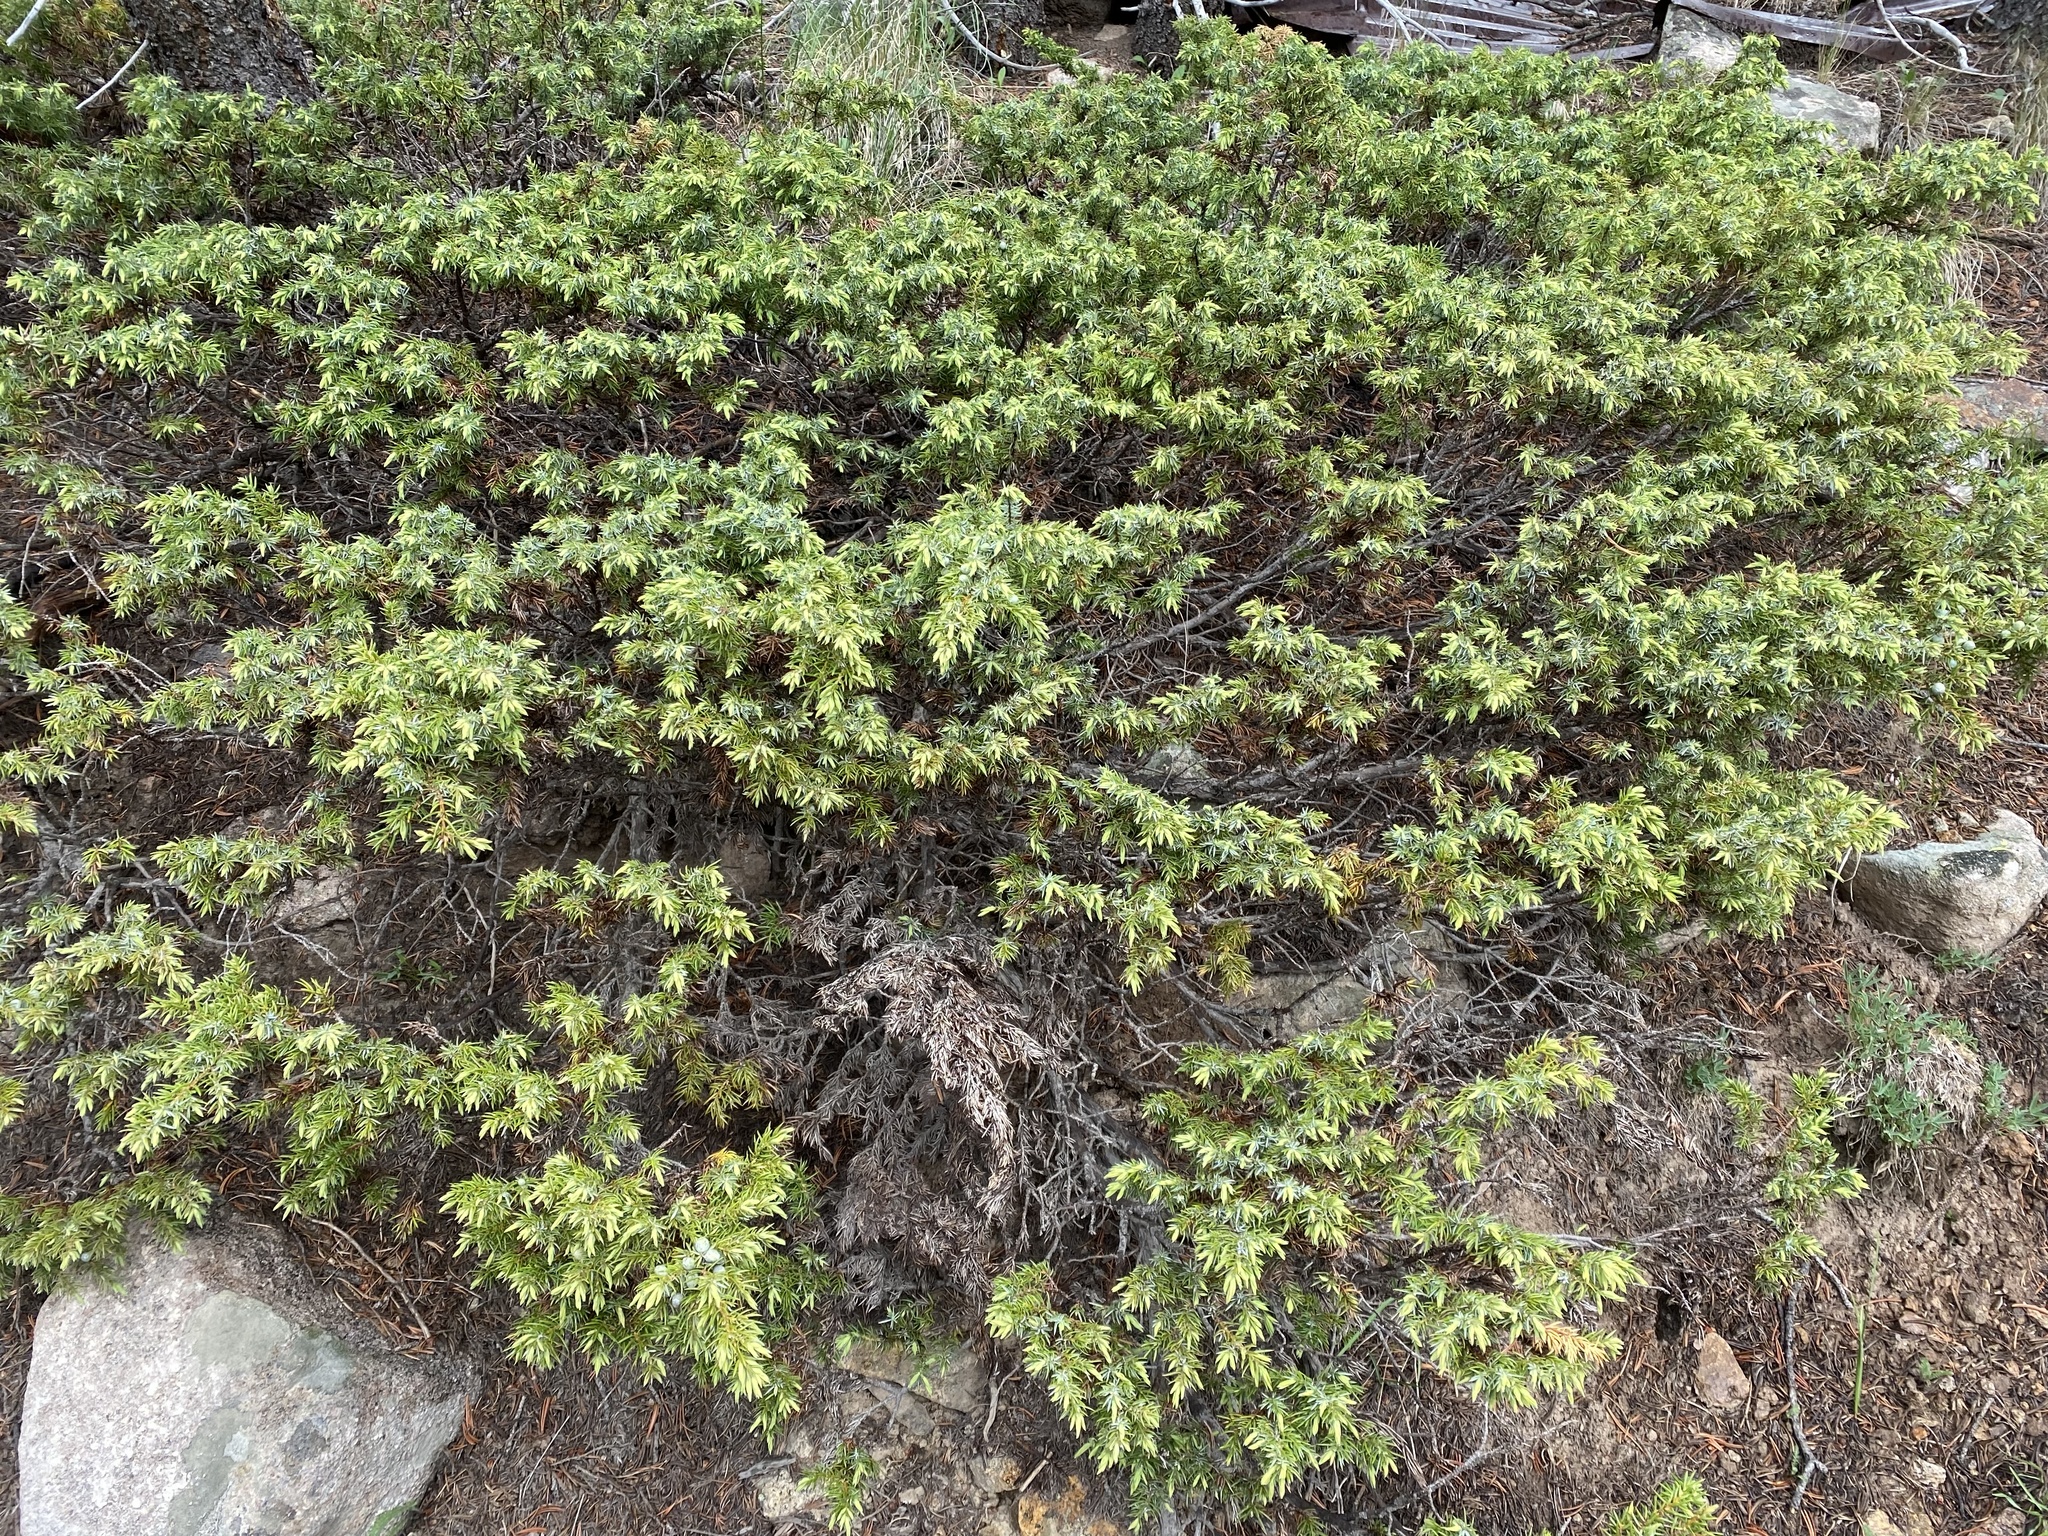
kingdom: Plantae
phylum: Tracheophyta
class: Pinopsida
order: Pinales
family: Cupressaceae
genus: Juniperus
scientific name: Juniperus communis
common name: Common juniper
